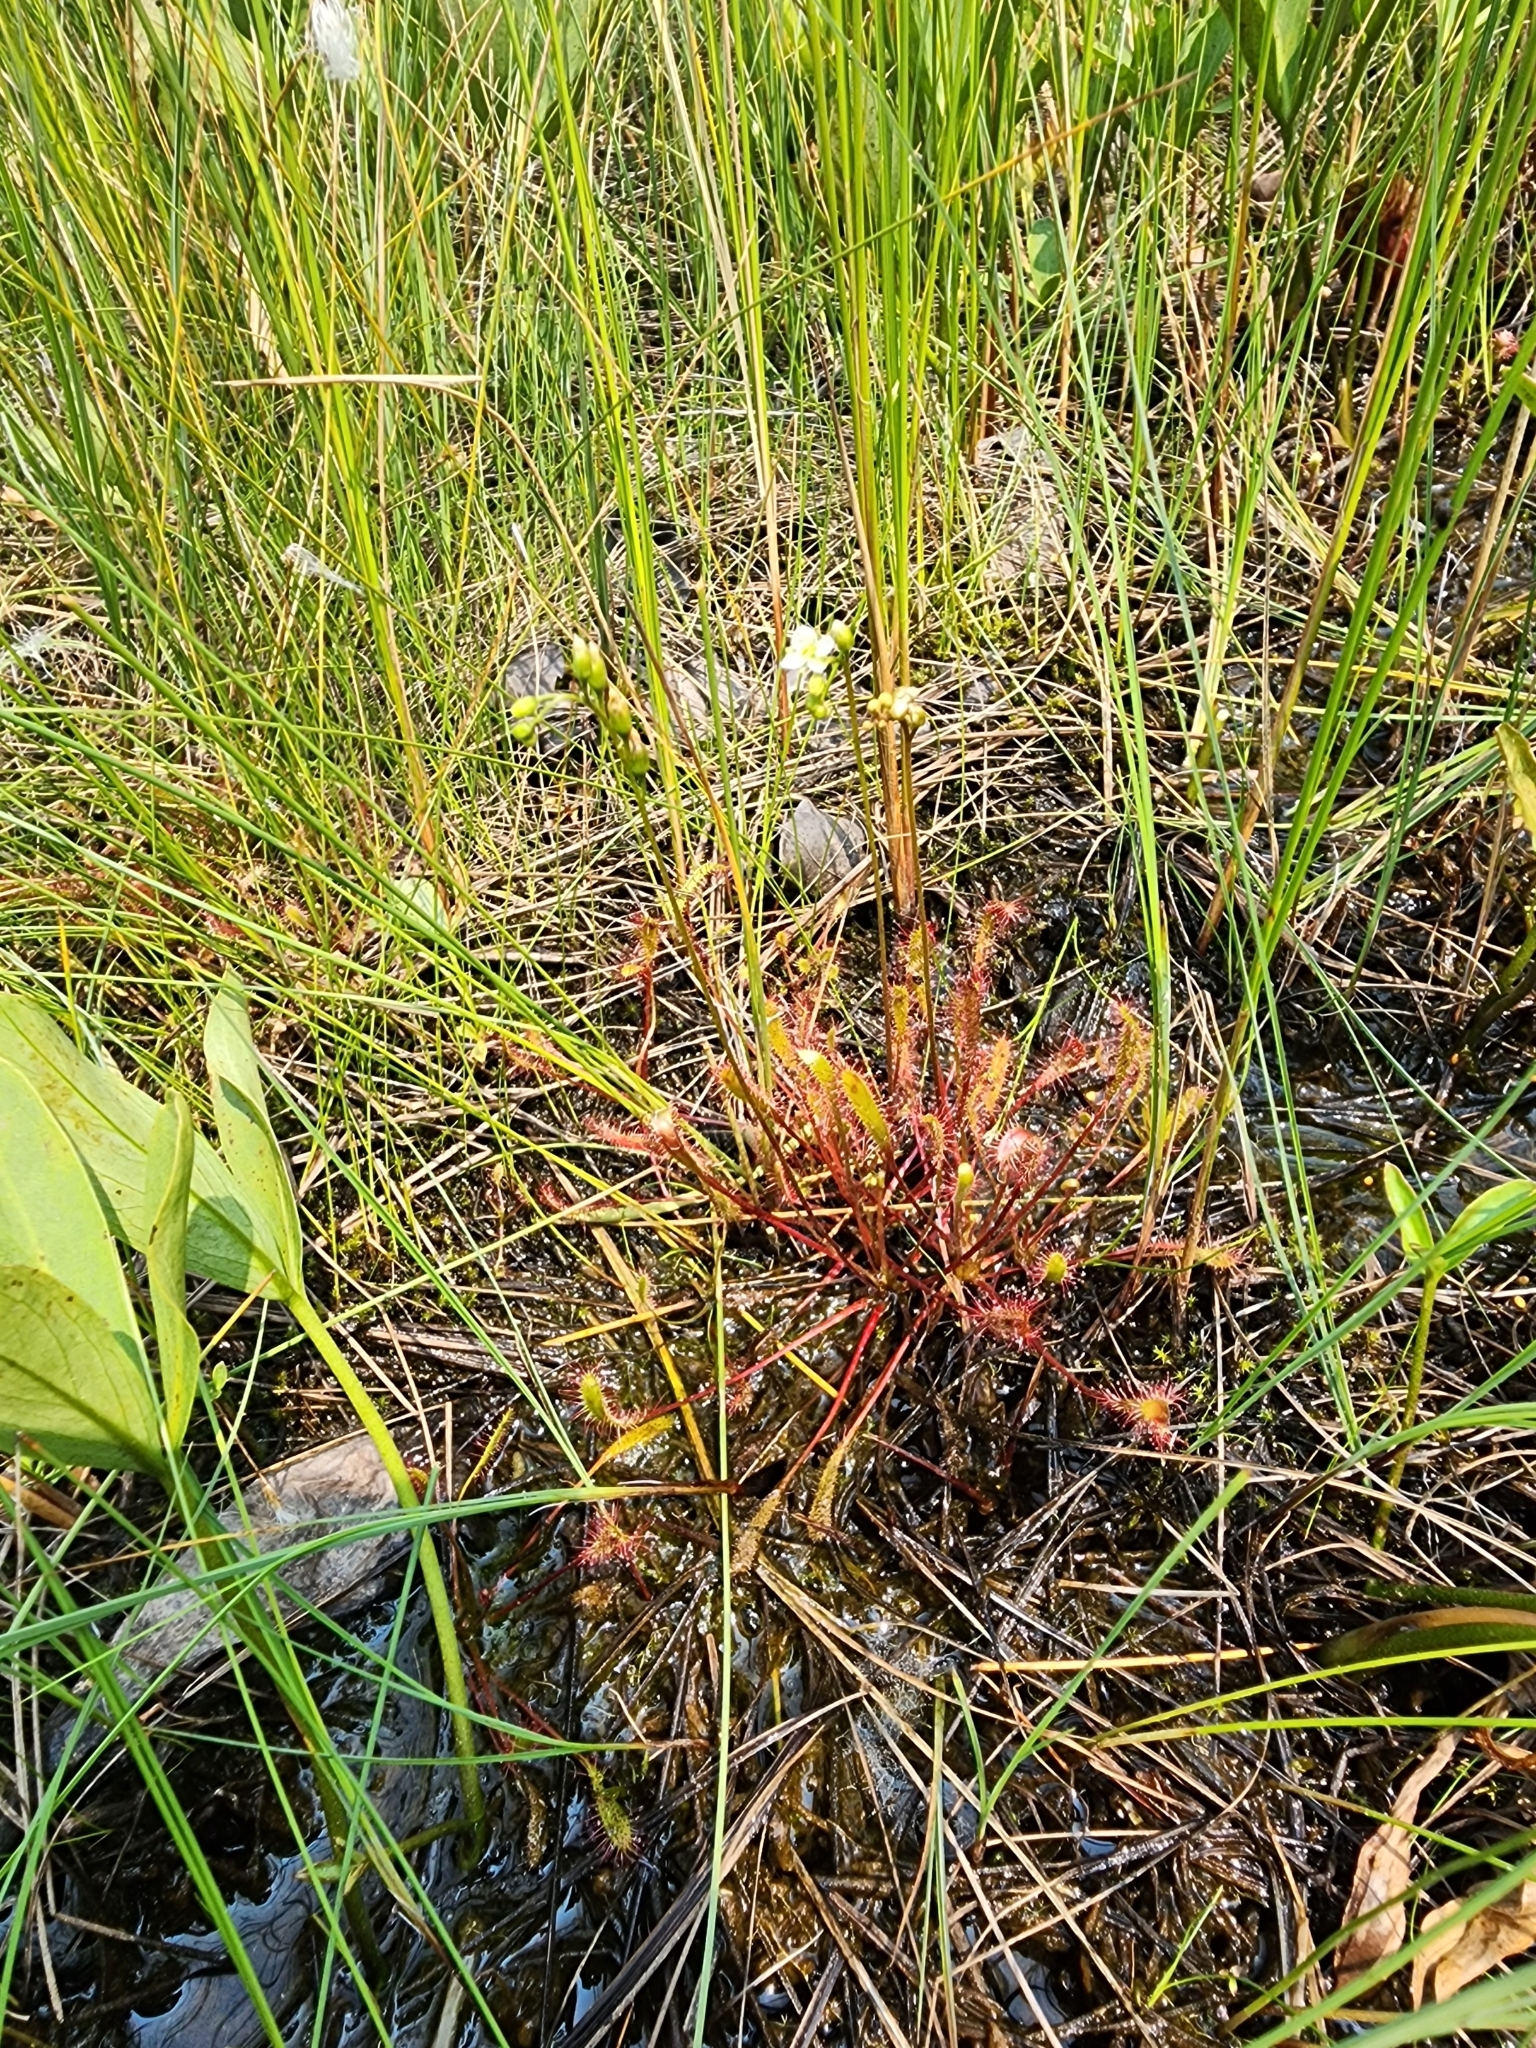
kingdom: Plantae
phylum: Tracheophyta
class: Magnoliopsida
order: Caryophyllales
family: Droseraceae
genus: Drosera
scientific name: Drosera anglica
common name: Great sundew
